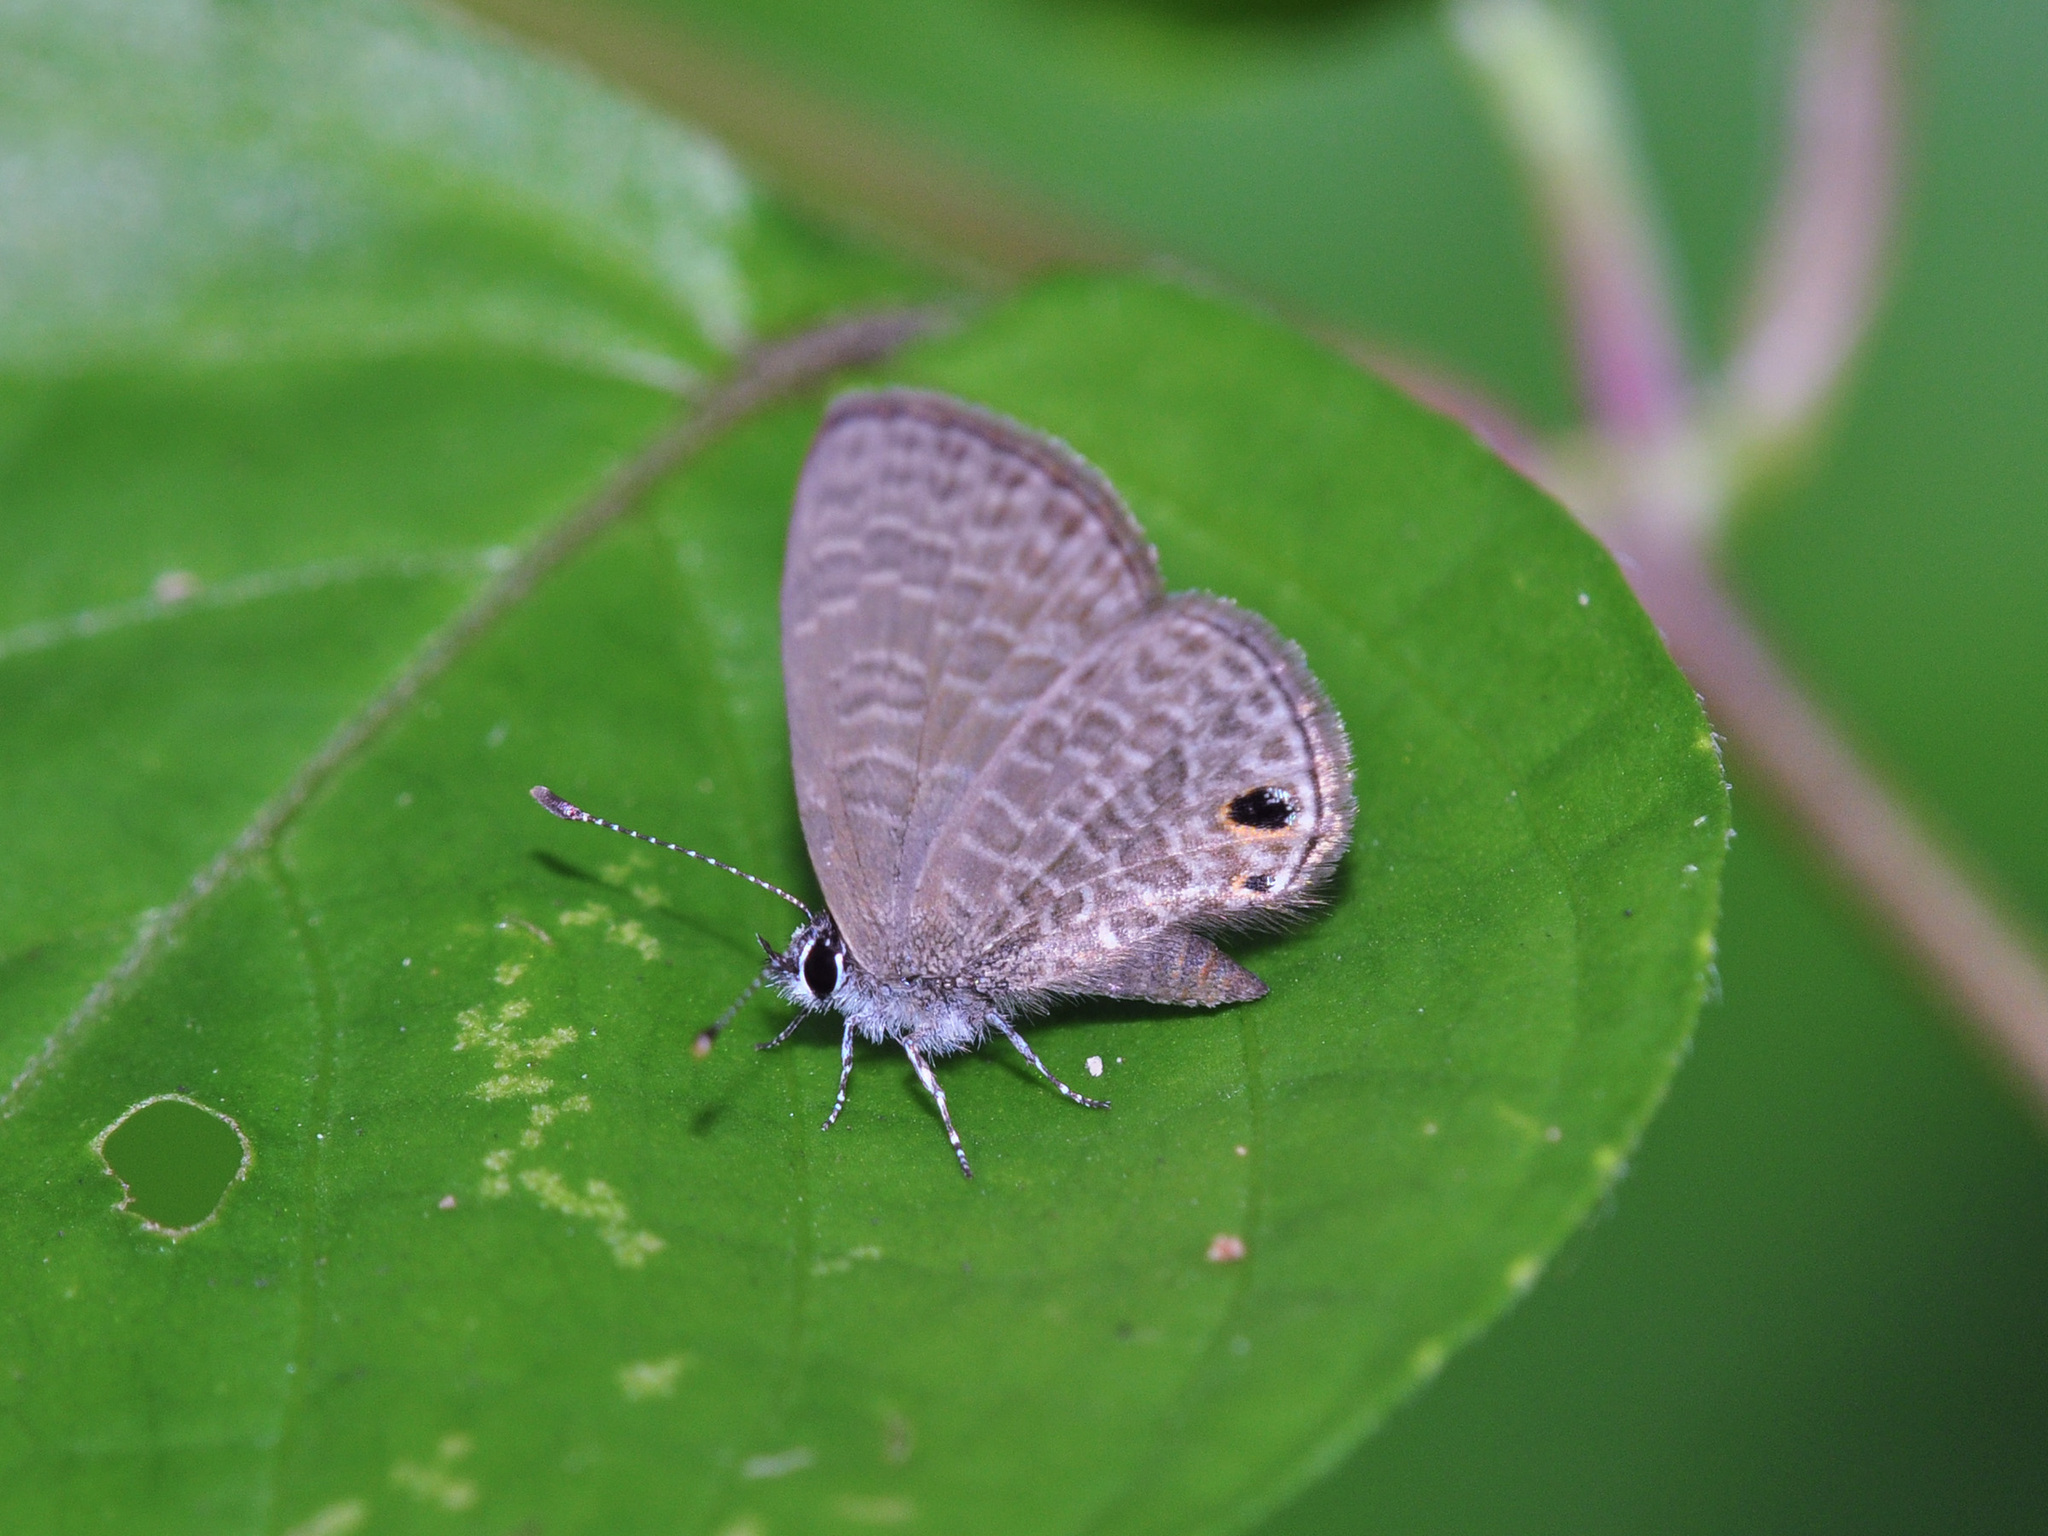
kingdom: Animalia
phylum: Arthropoda
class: Insecta
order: Lepidoptera
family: Lycaenidae
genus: Prosotas
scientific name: Prosotas dubiosa
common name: Tailless lineblue
